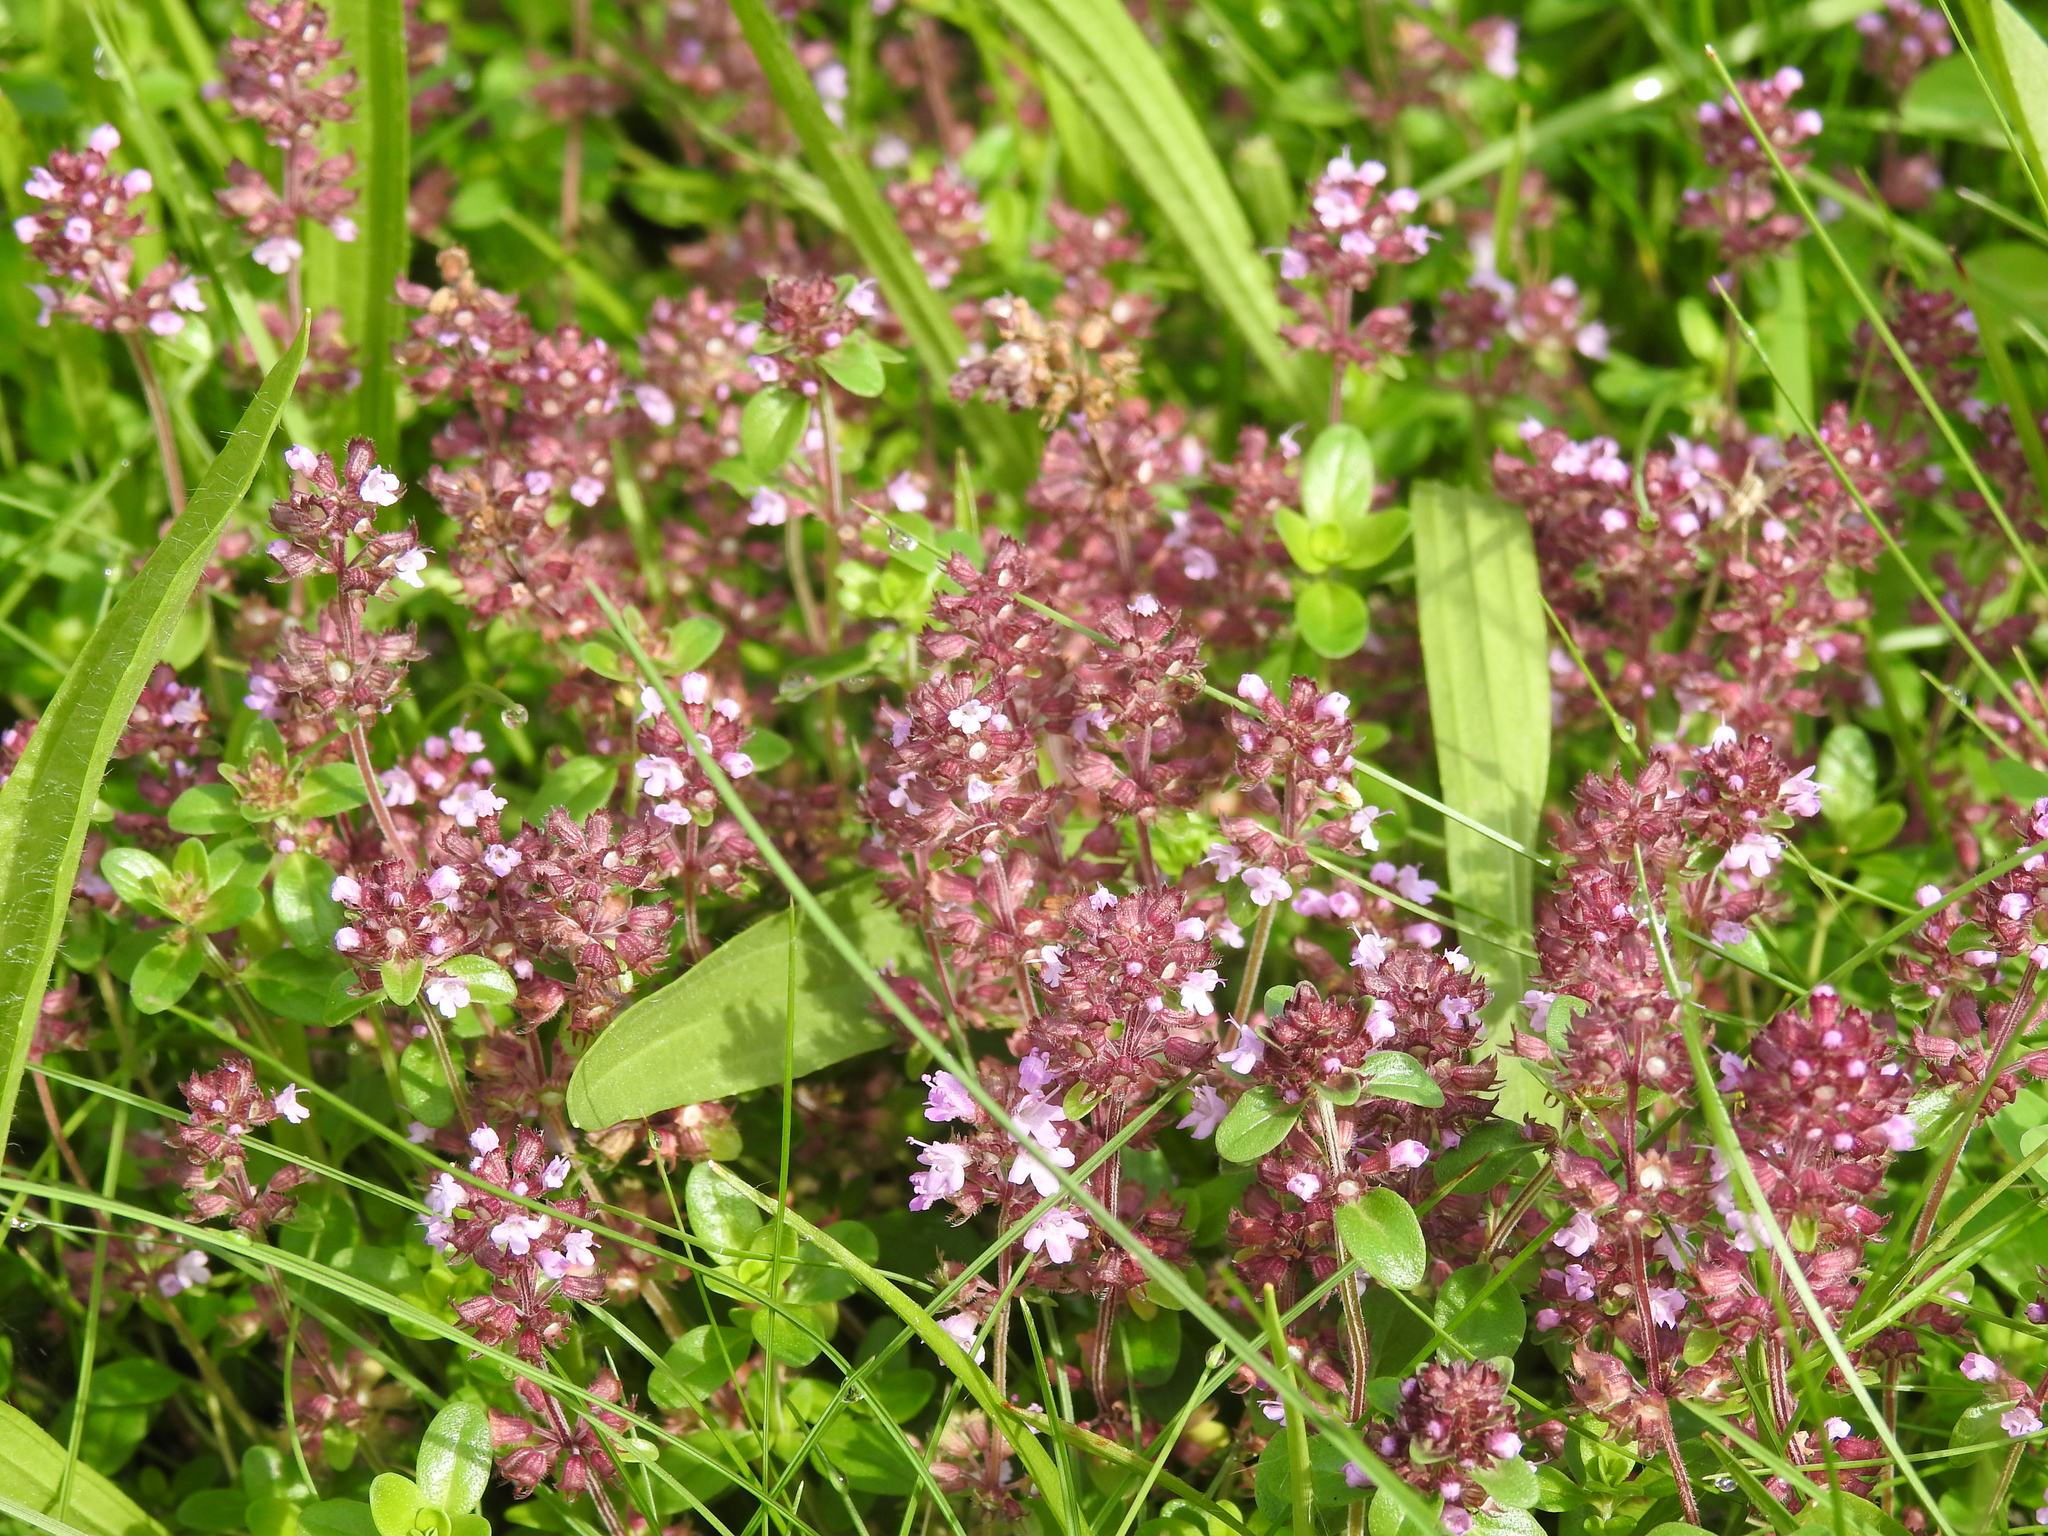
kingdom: Plantae
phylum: Tracheophyta
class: Magnoliopsida
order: Lamiales
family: Lamiaceae
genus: Thymus
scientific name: Thymus pulegioides
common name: Large thyme
